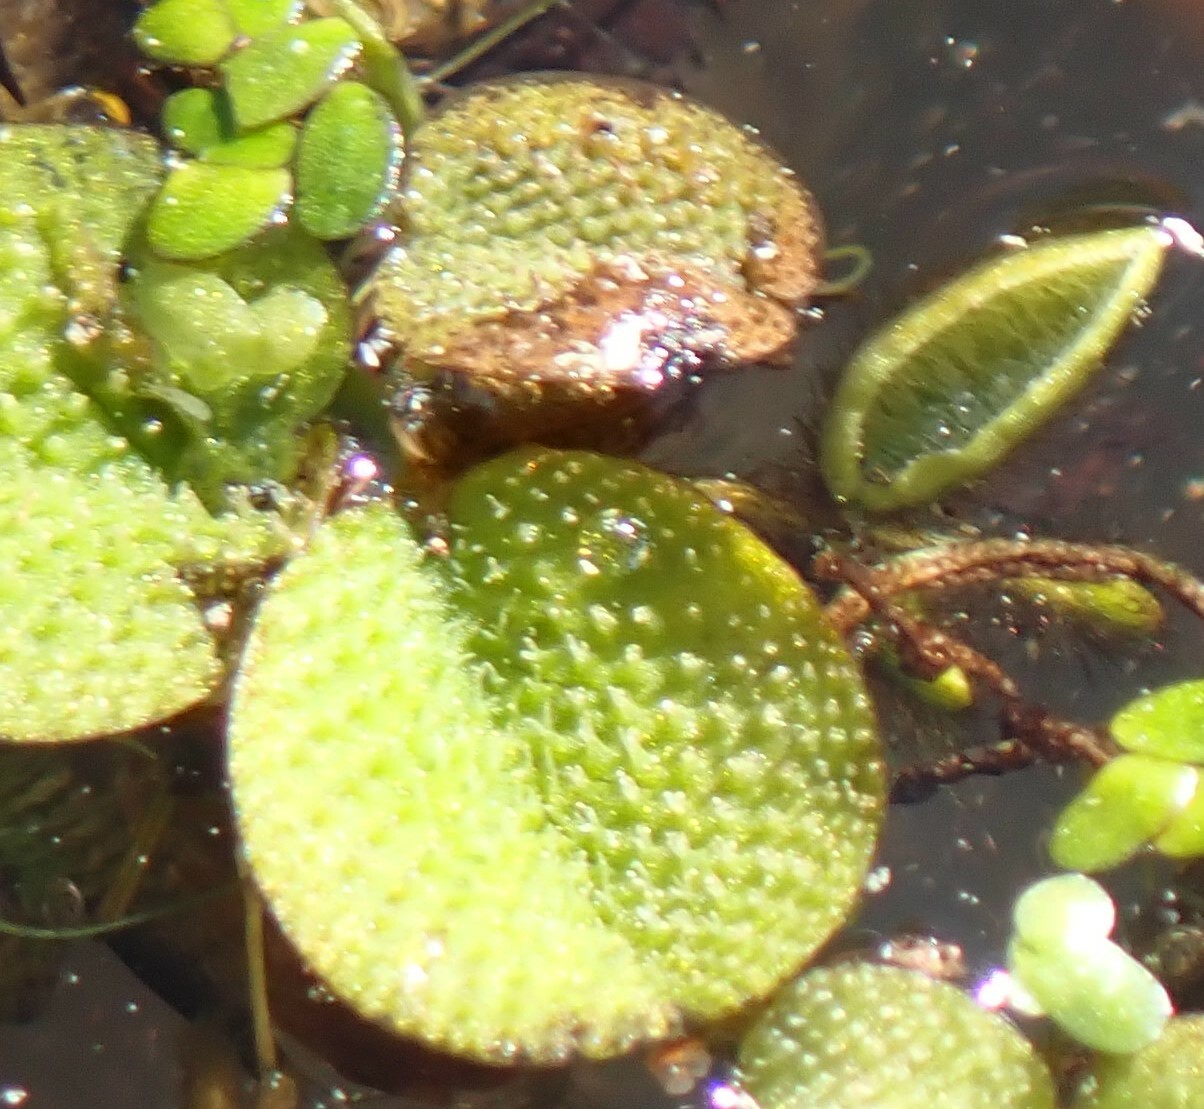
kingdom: Plantae
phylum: Tracheophyta
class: Polypodiopsida
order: Salviniales
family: Salviniaceae
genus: Salvinia
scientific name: Salvinia minima
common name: Water spangles
